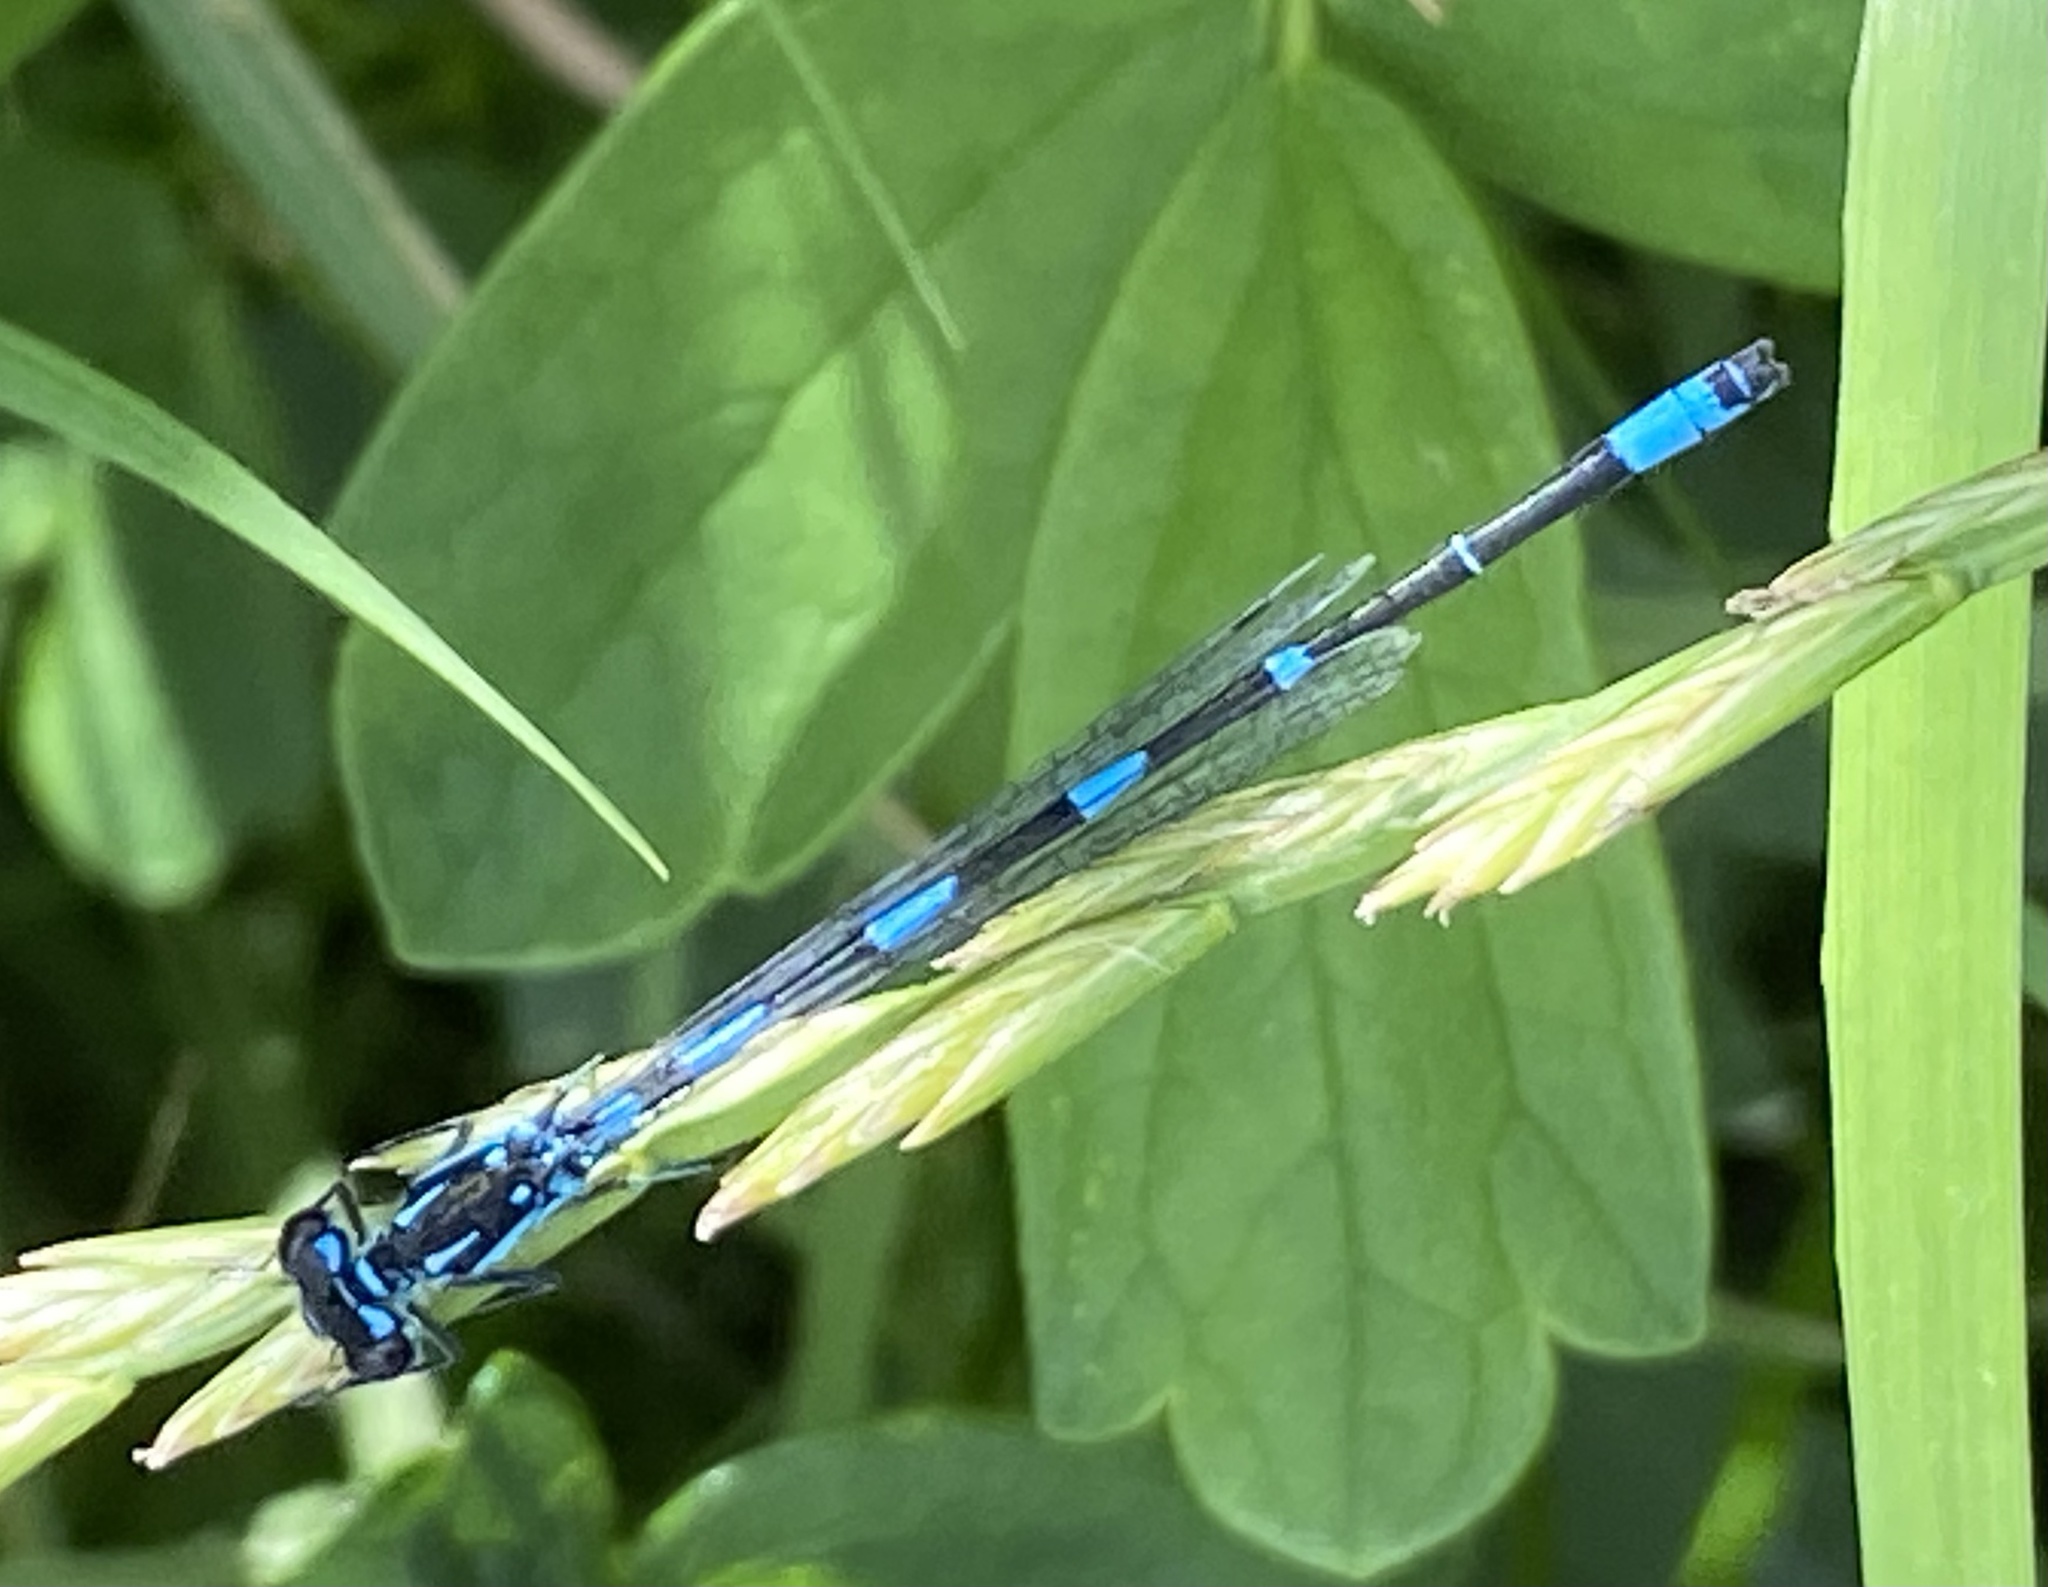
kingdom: Animalia
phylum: Arthropoda
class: Insecta
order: Odonata
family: Coenagrionidae
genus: Coenagrion
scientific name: Coenagrion pulchellum
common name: Variable bluet
